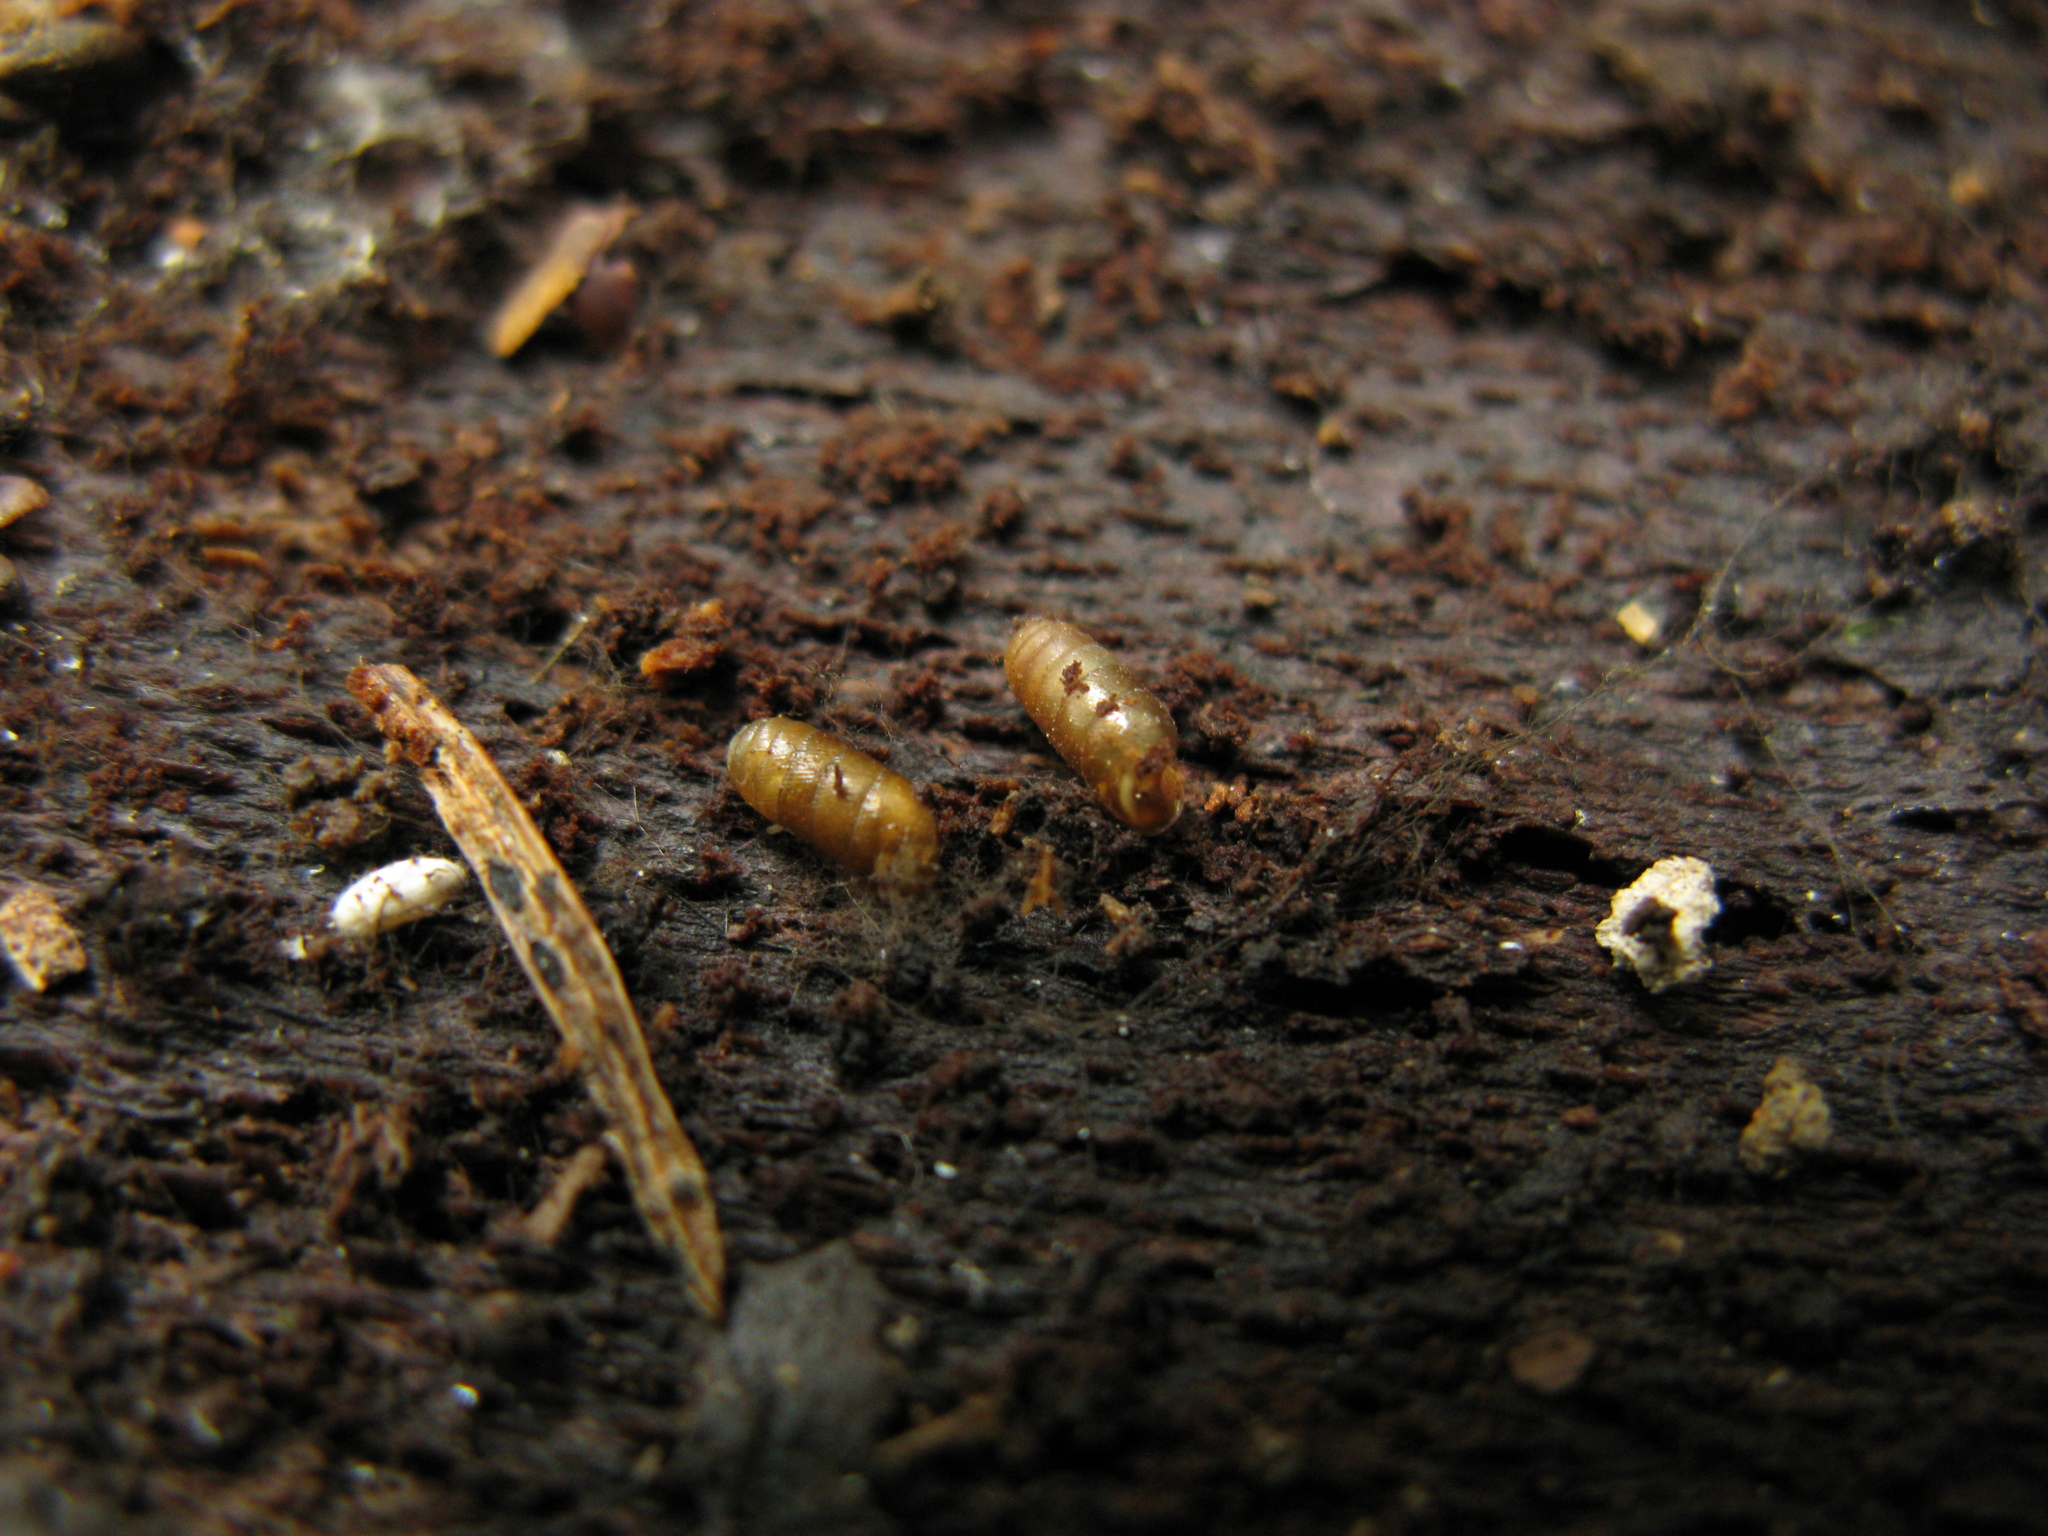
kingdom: Animalia
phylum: Mollusca
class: Gastropoda
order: Stylommatophora
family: Argnidae
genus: Argna
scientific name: Argna bielzi
